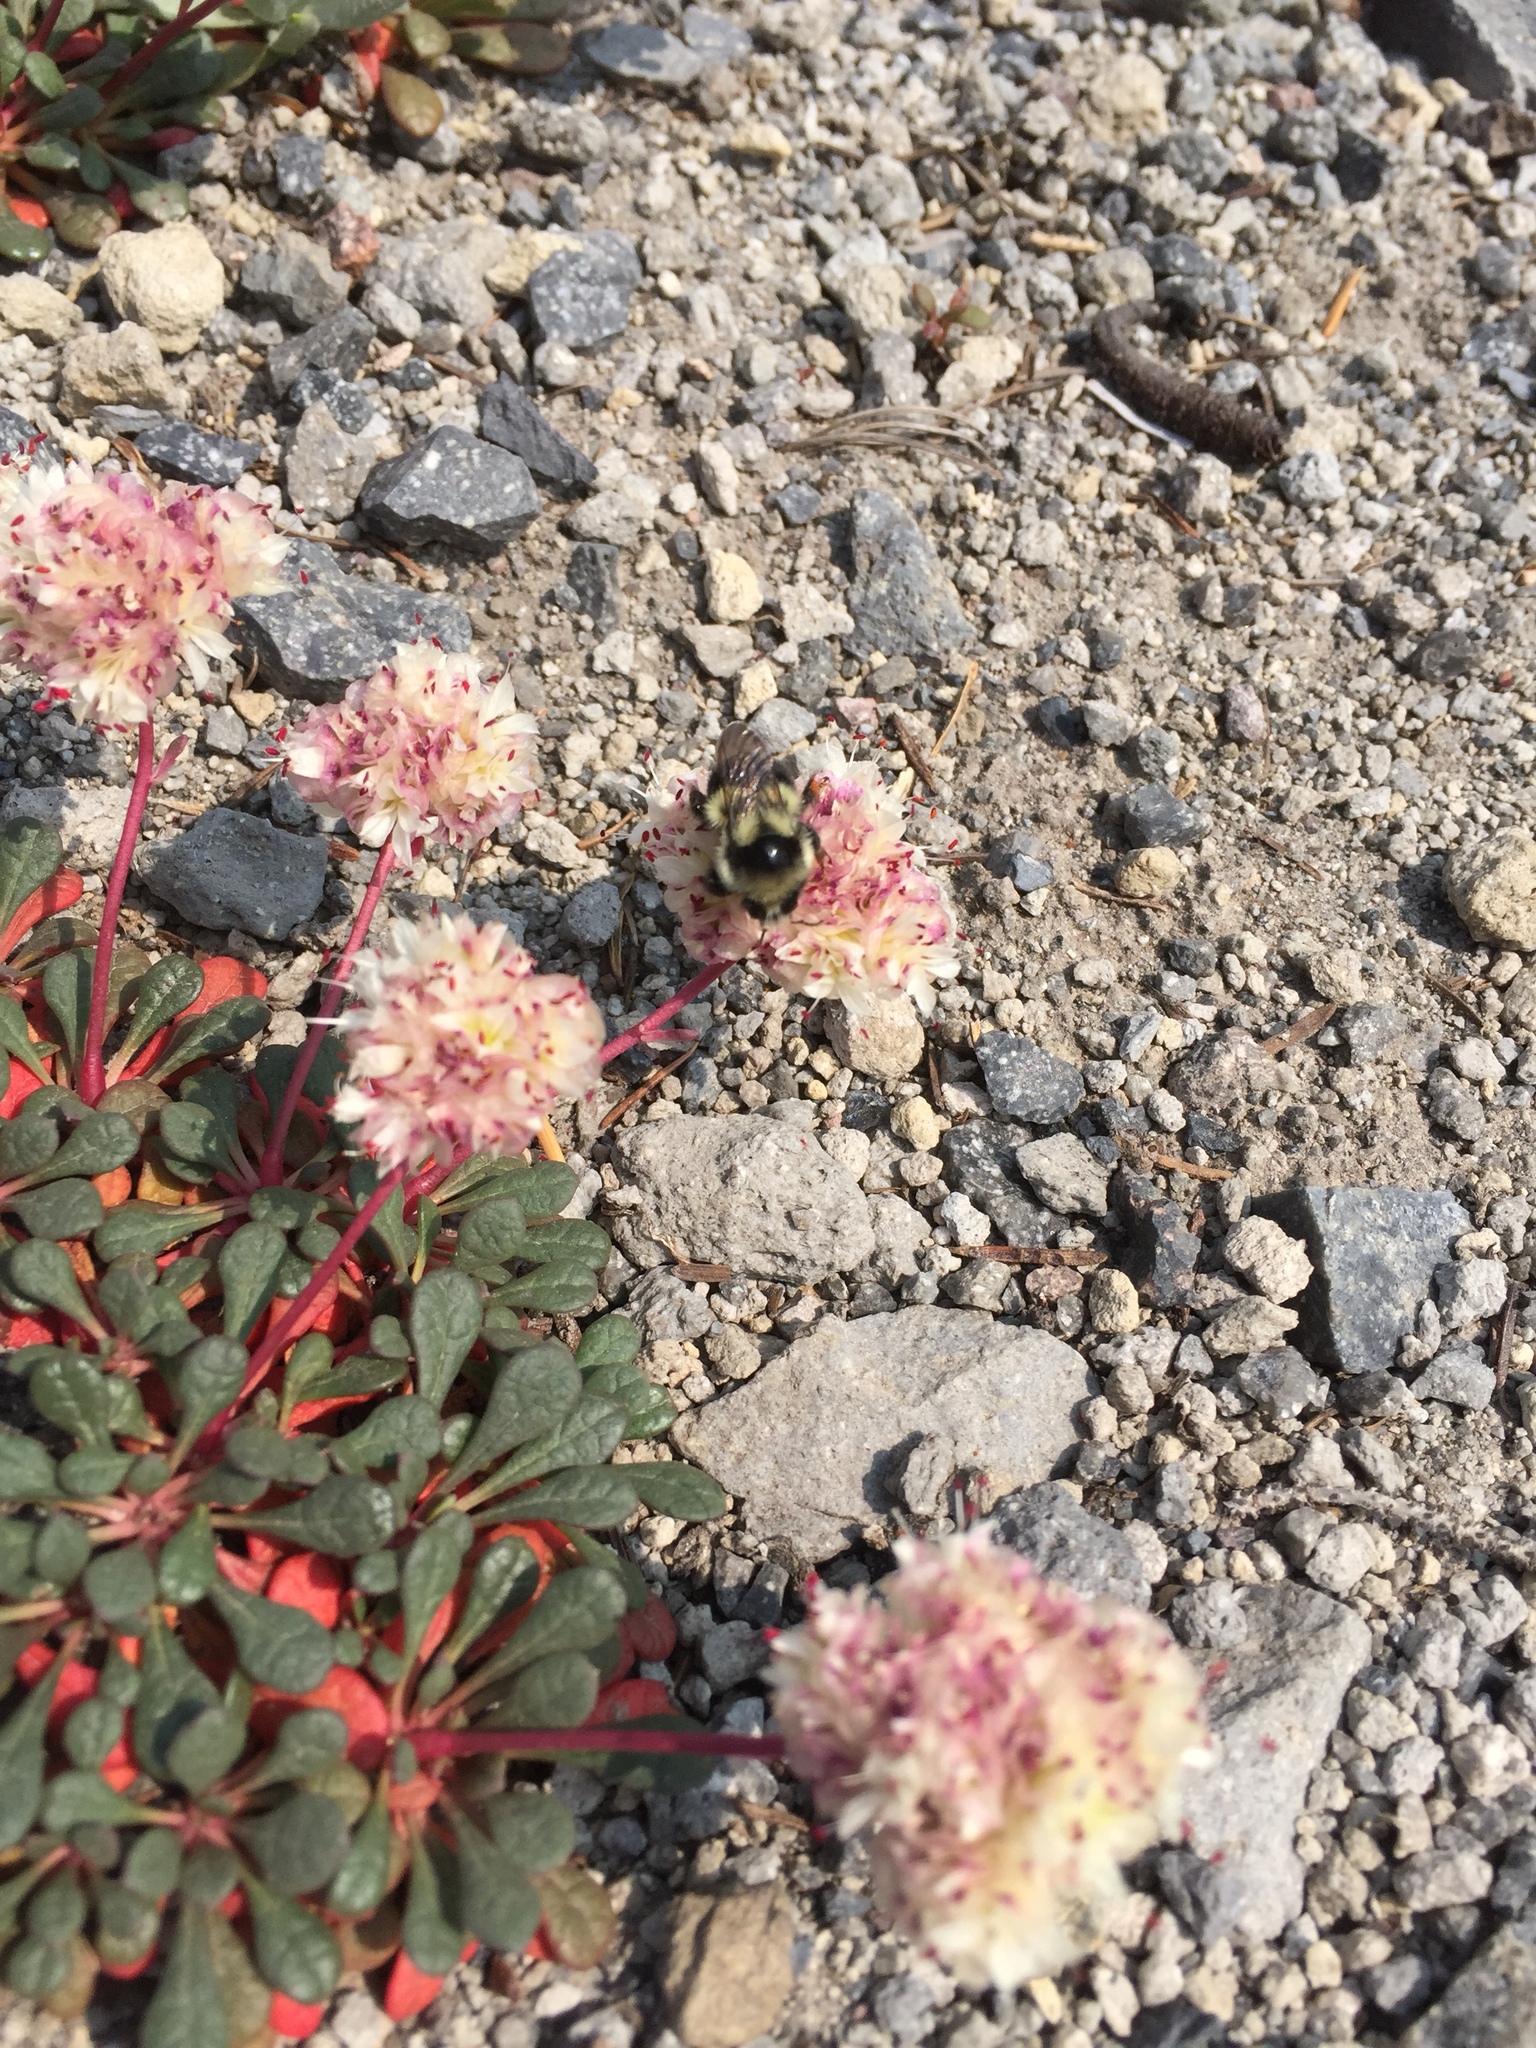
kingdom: Animalia
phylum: Arthropoda
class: Insecta
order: Hymenoptera
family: Apidae
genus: Bombus
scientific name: Bombus vancouverensis
